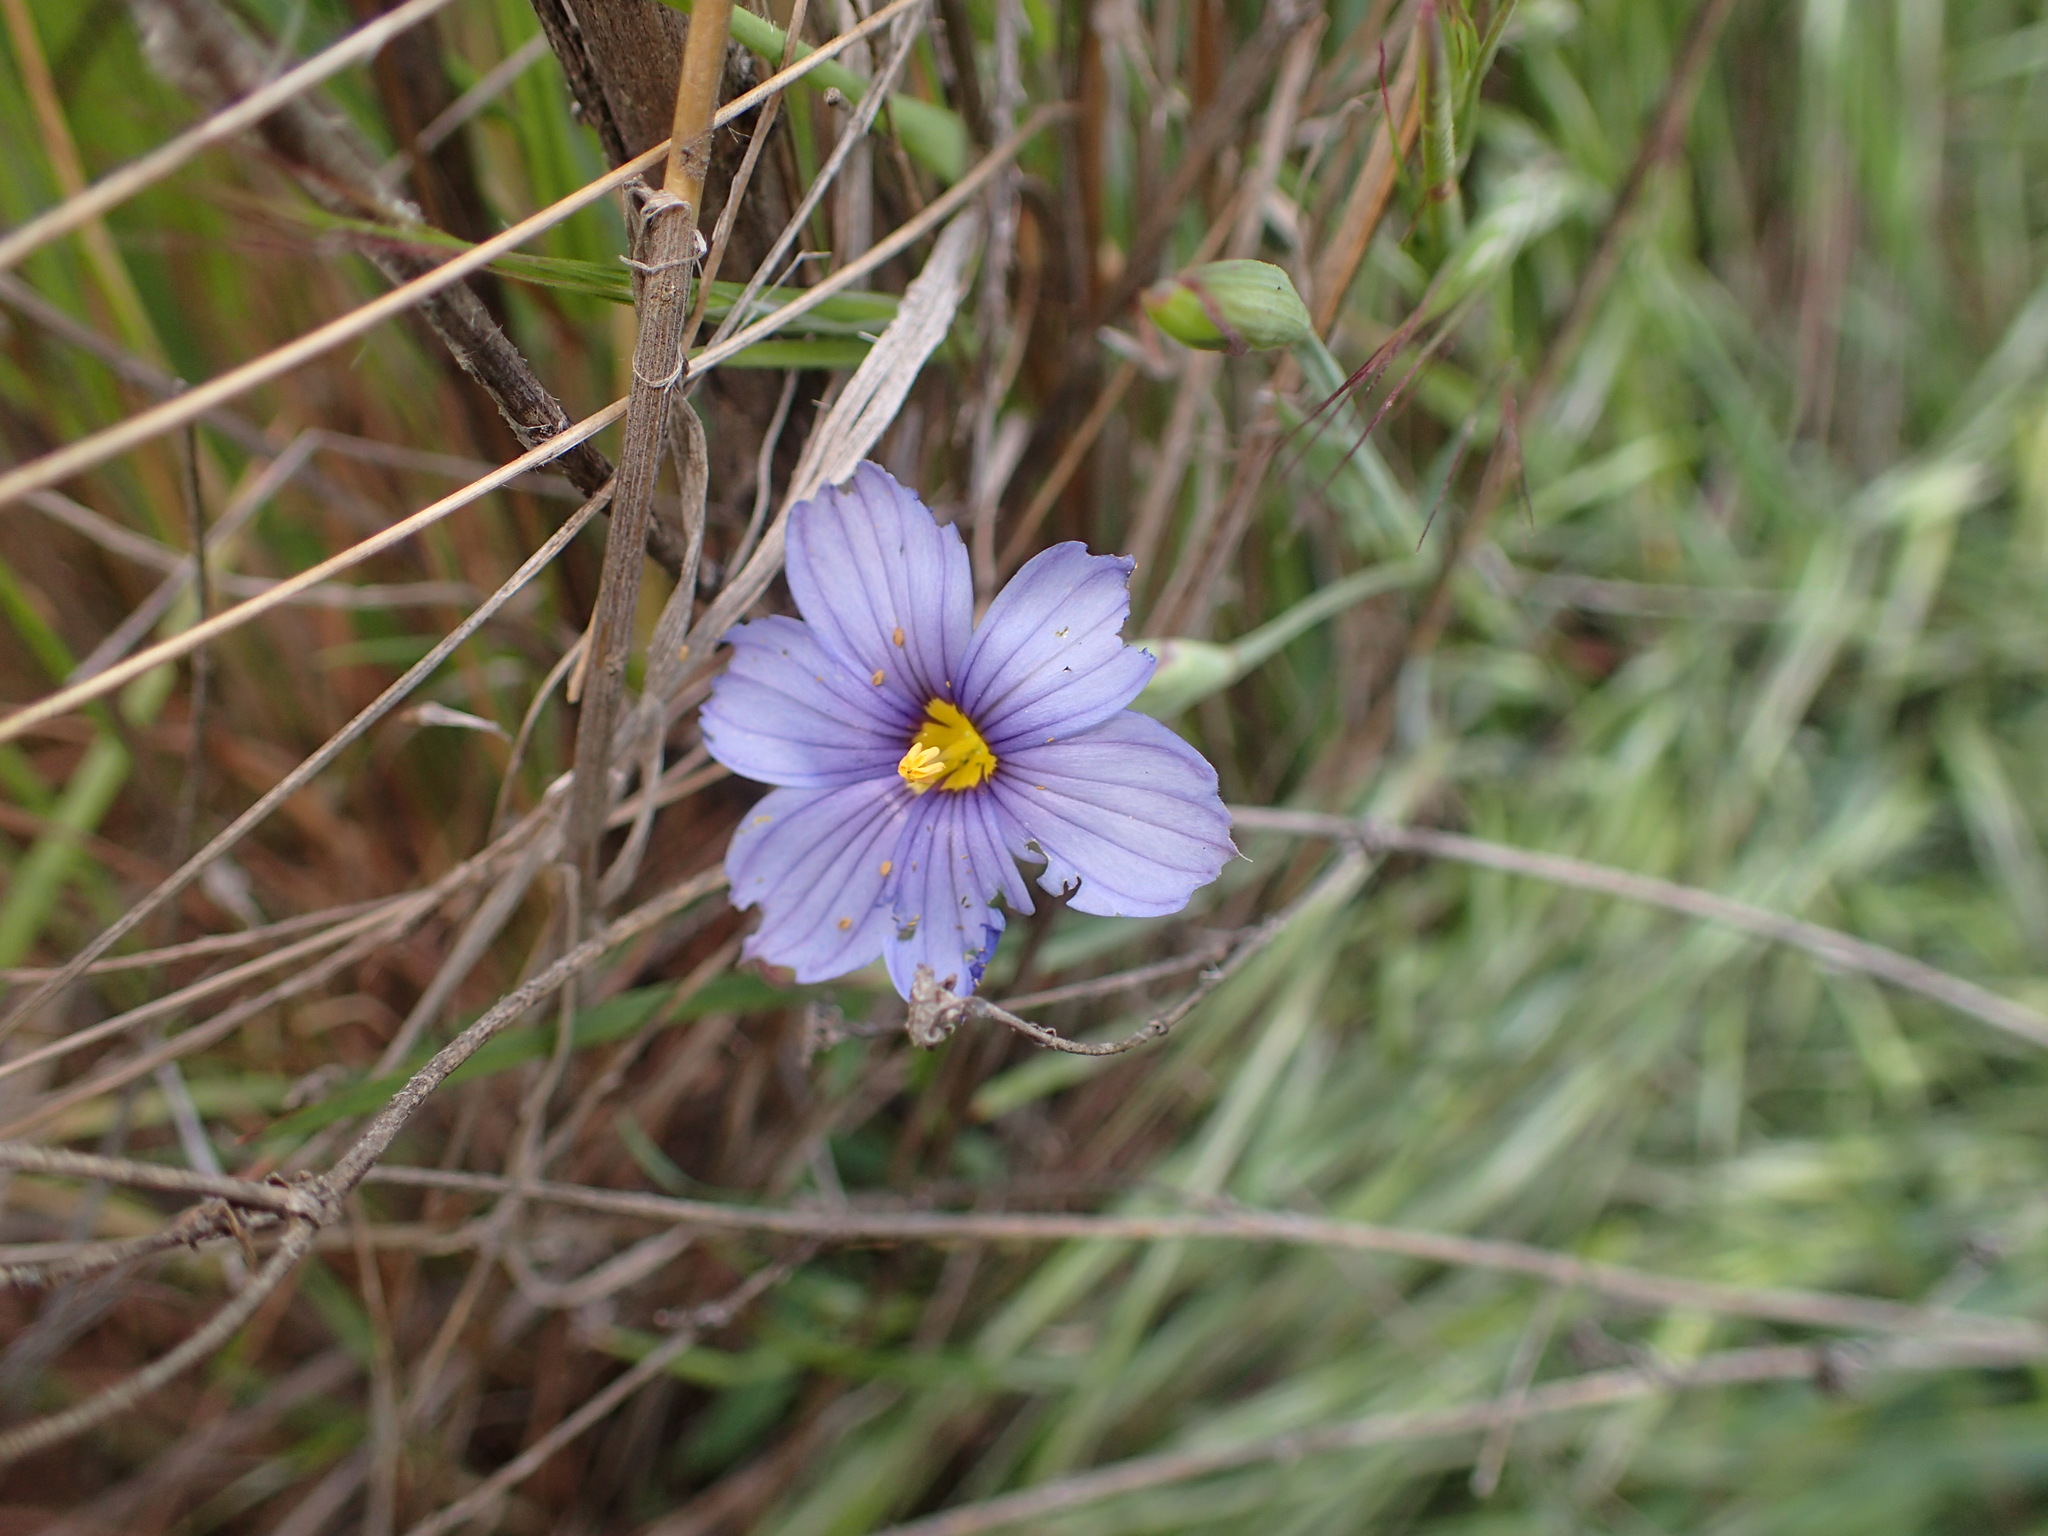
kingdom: Plantae
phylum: Tracheophyta
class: Liliopsida
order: Asparagales
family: Iridaceae
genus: Sisyrinchium
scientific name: Sisyrinchium bellum
